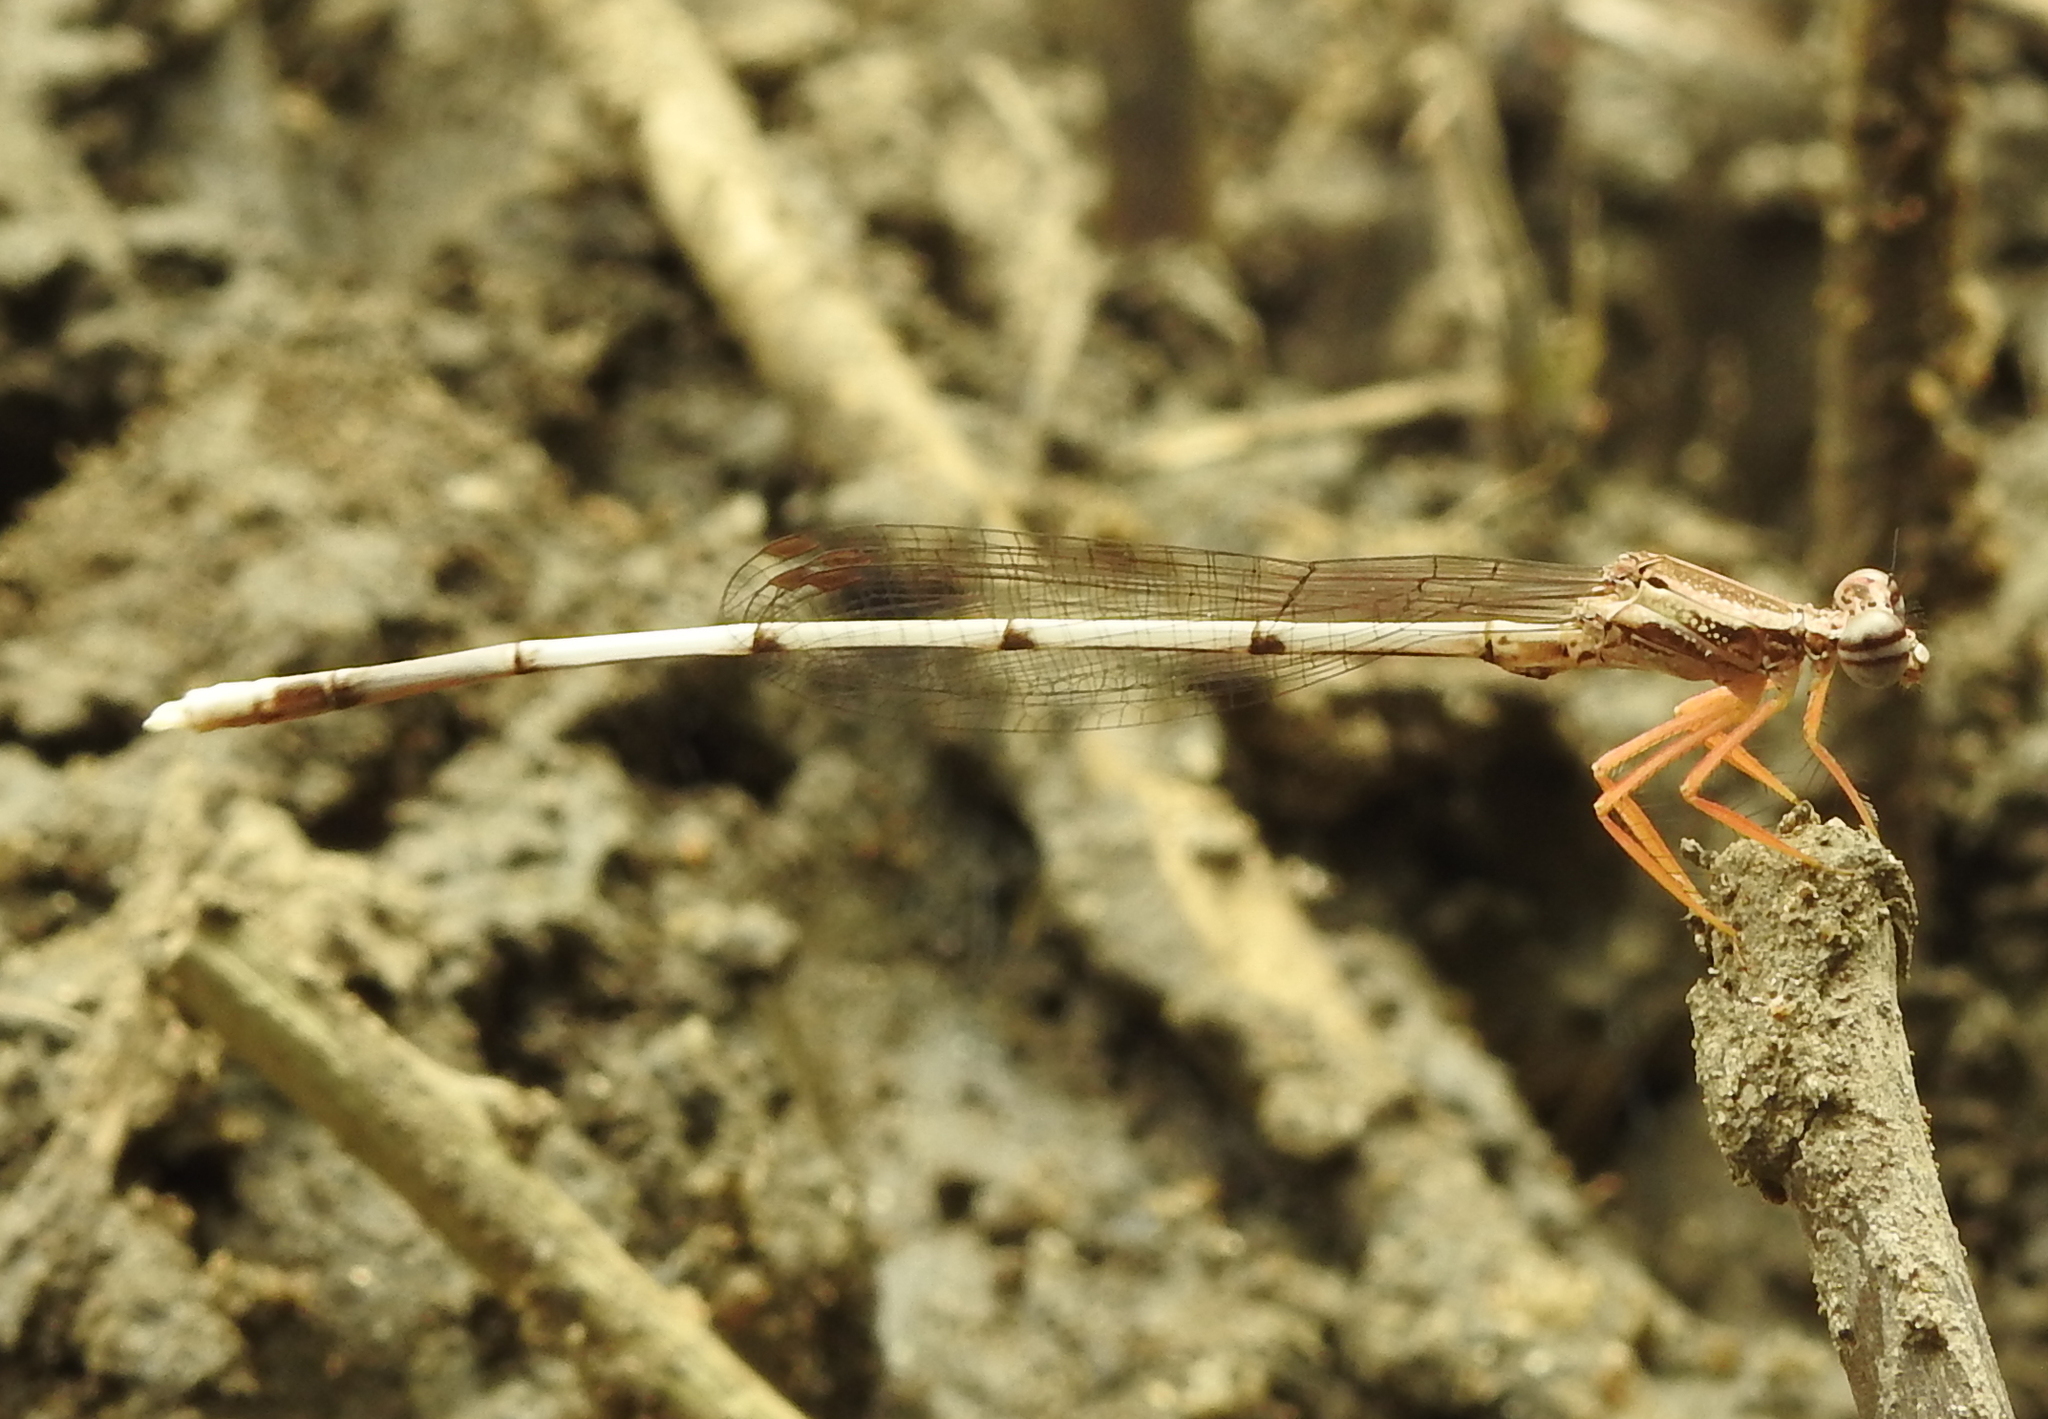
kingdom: Animalia
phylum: Arthropoda
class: Insecta
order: Odonata
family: Platycnemididae
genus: Copera
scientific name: Copera marginipes
